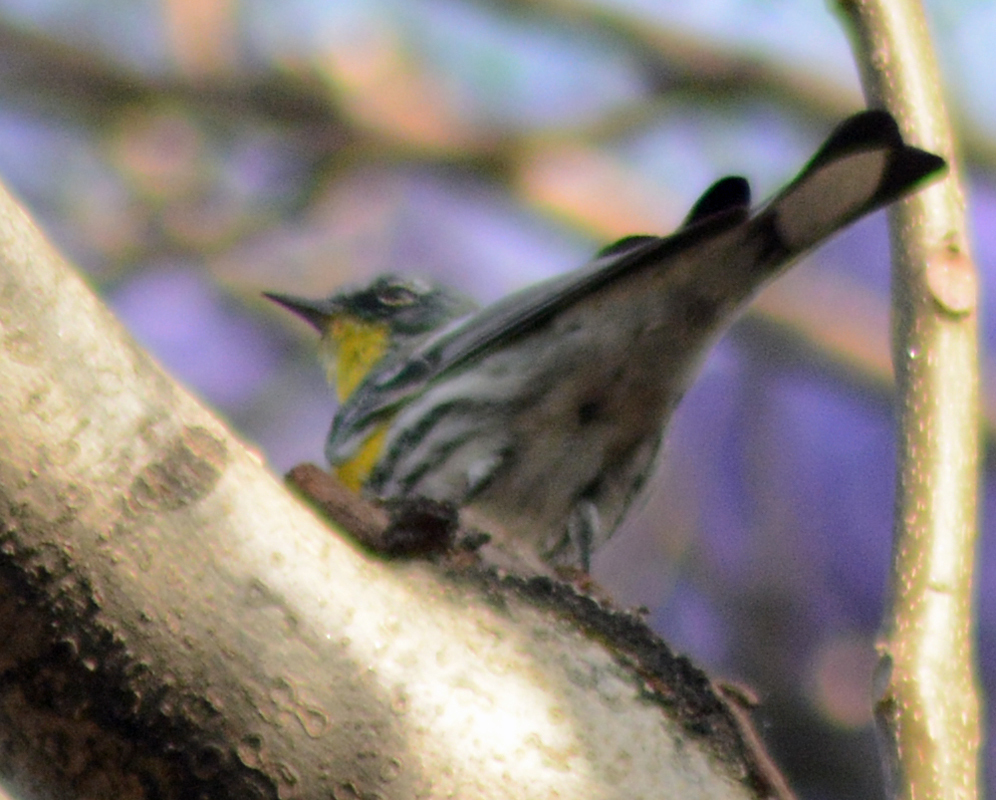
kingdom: Animalia
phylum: Chordata
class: Aves
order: Passeriformes
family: Parulidae
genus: Setophaga
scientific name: Setophaga coronata
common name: Myrtle warbler
